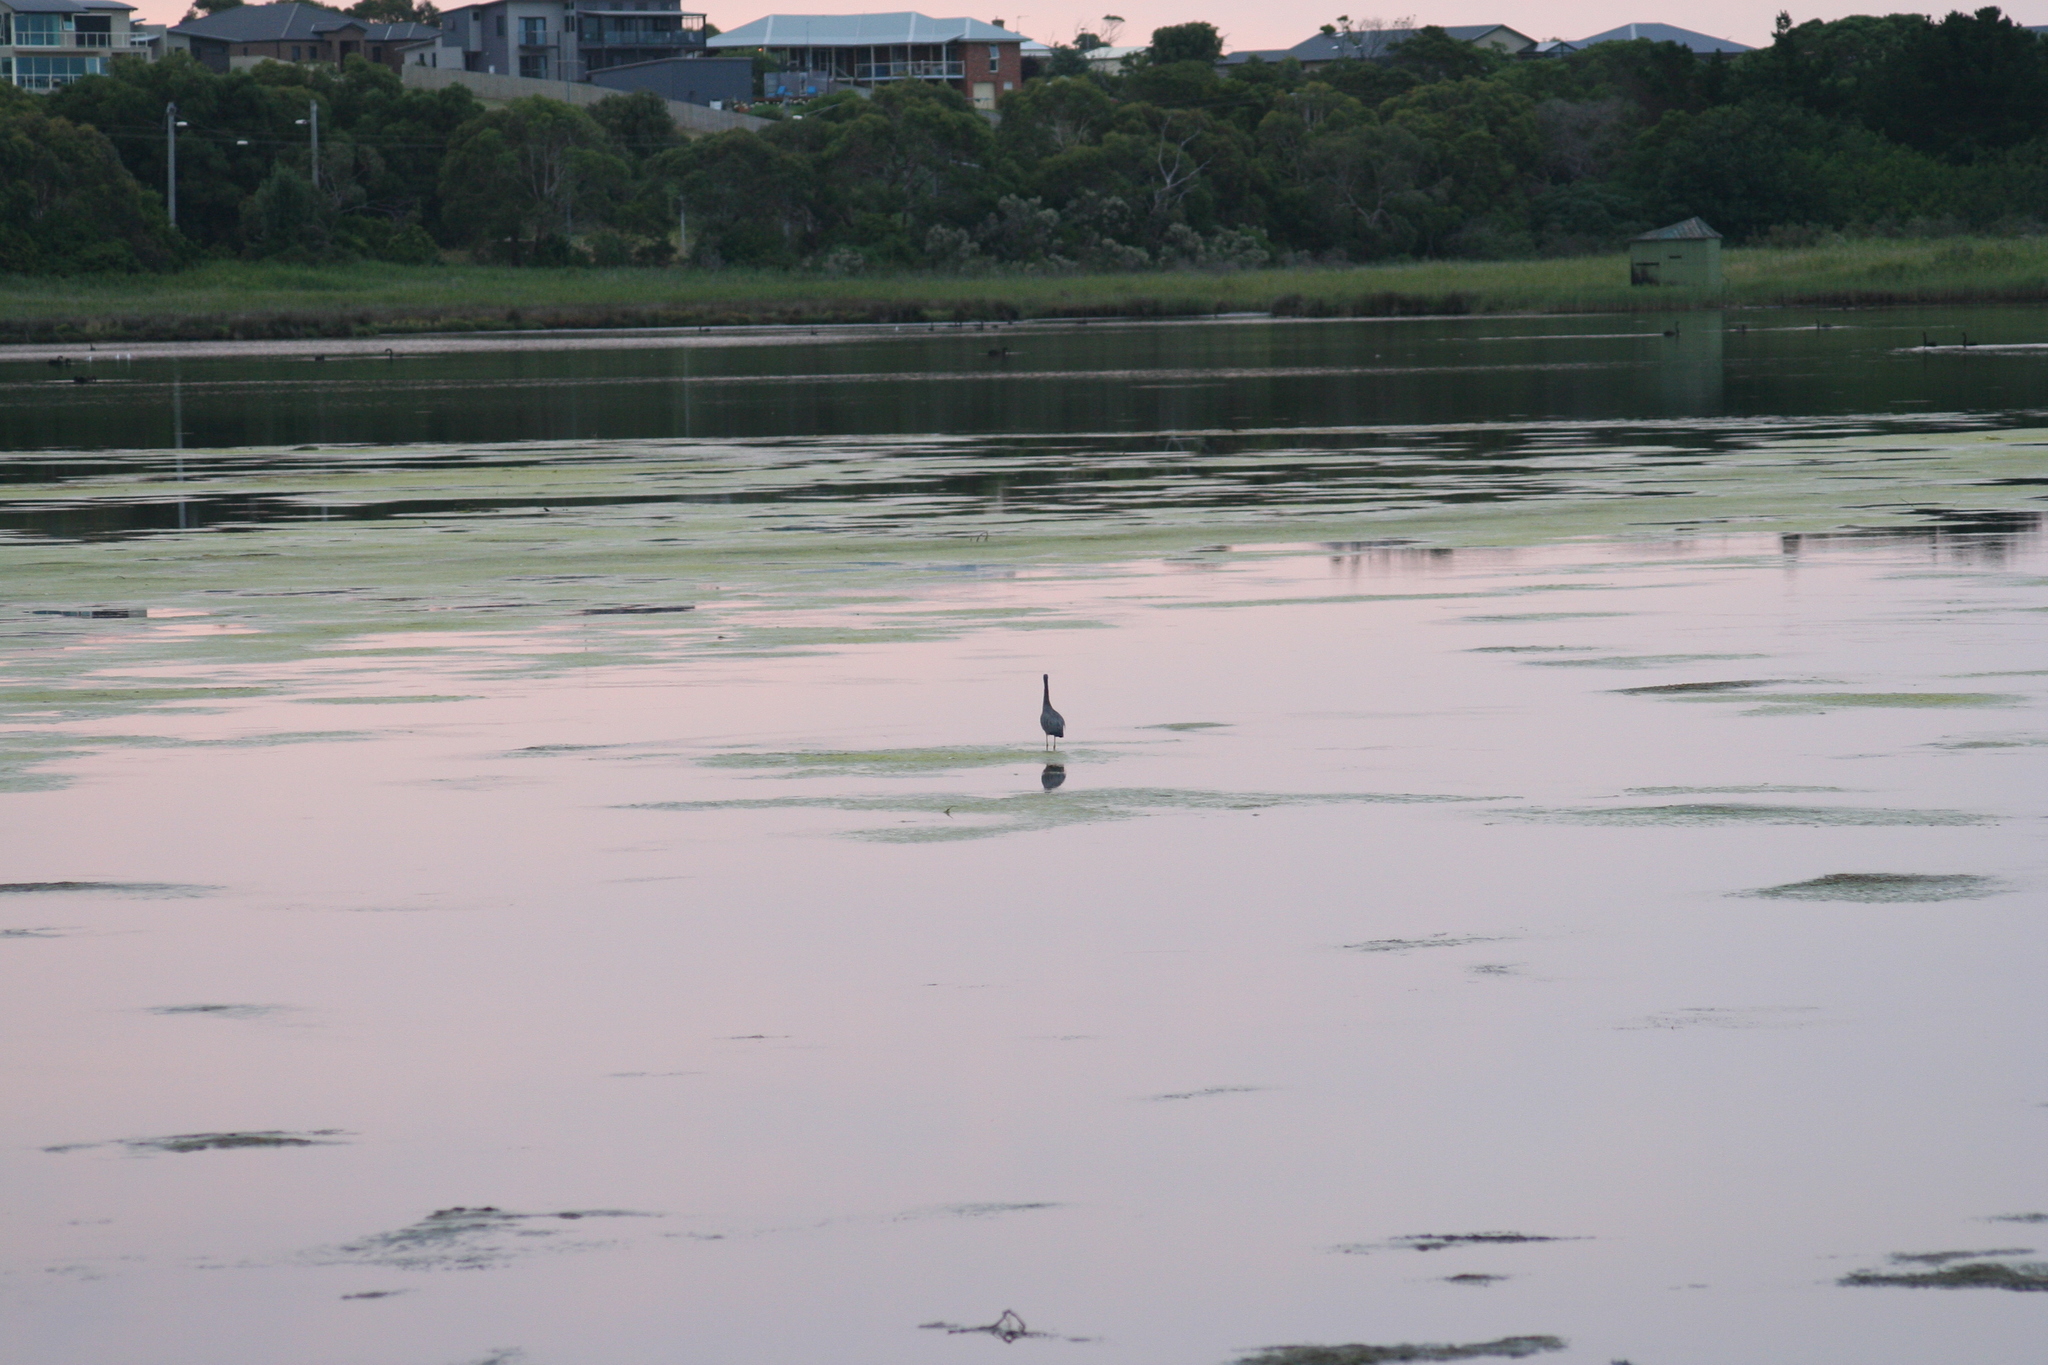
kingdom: Animalia
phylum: Chordata
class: Aves
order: Pelecaniformes
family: Ardeidae
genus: Egretta
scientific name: Egretta novaehollandiae
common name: White-faced heron
